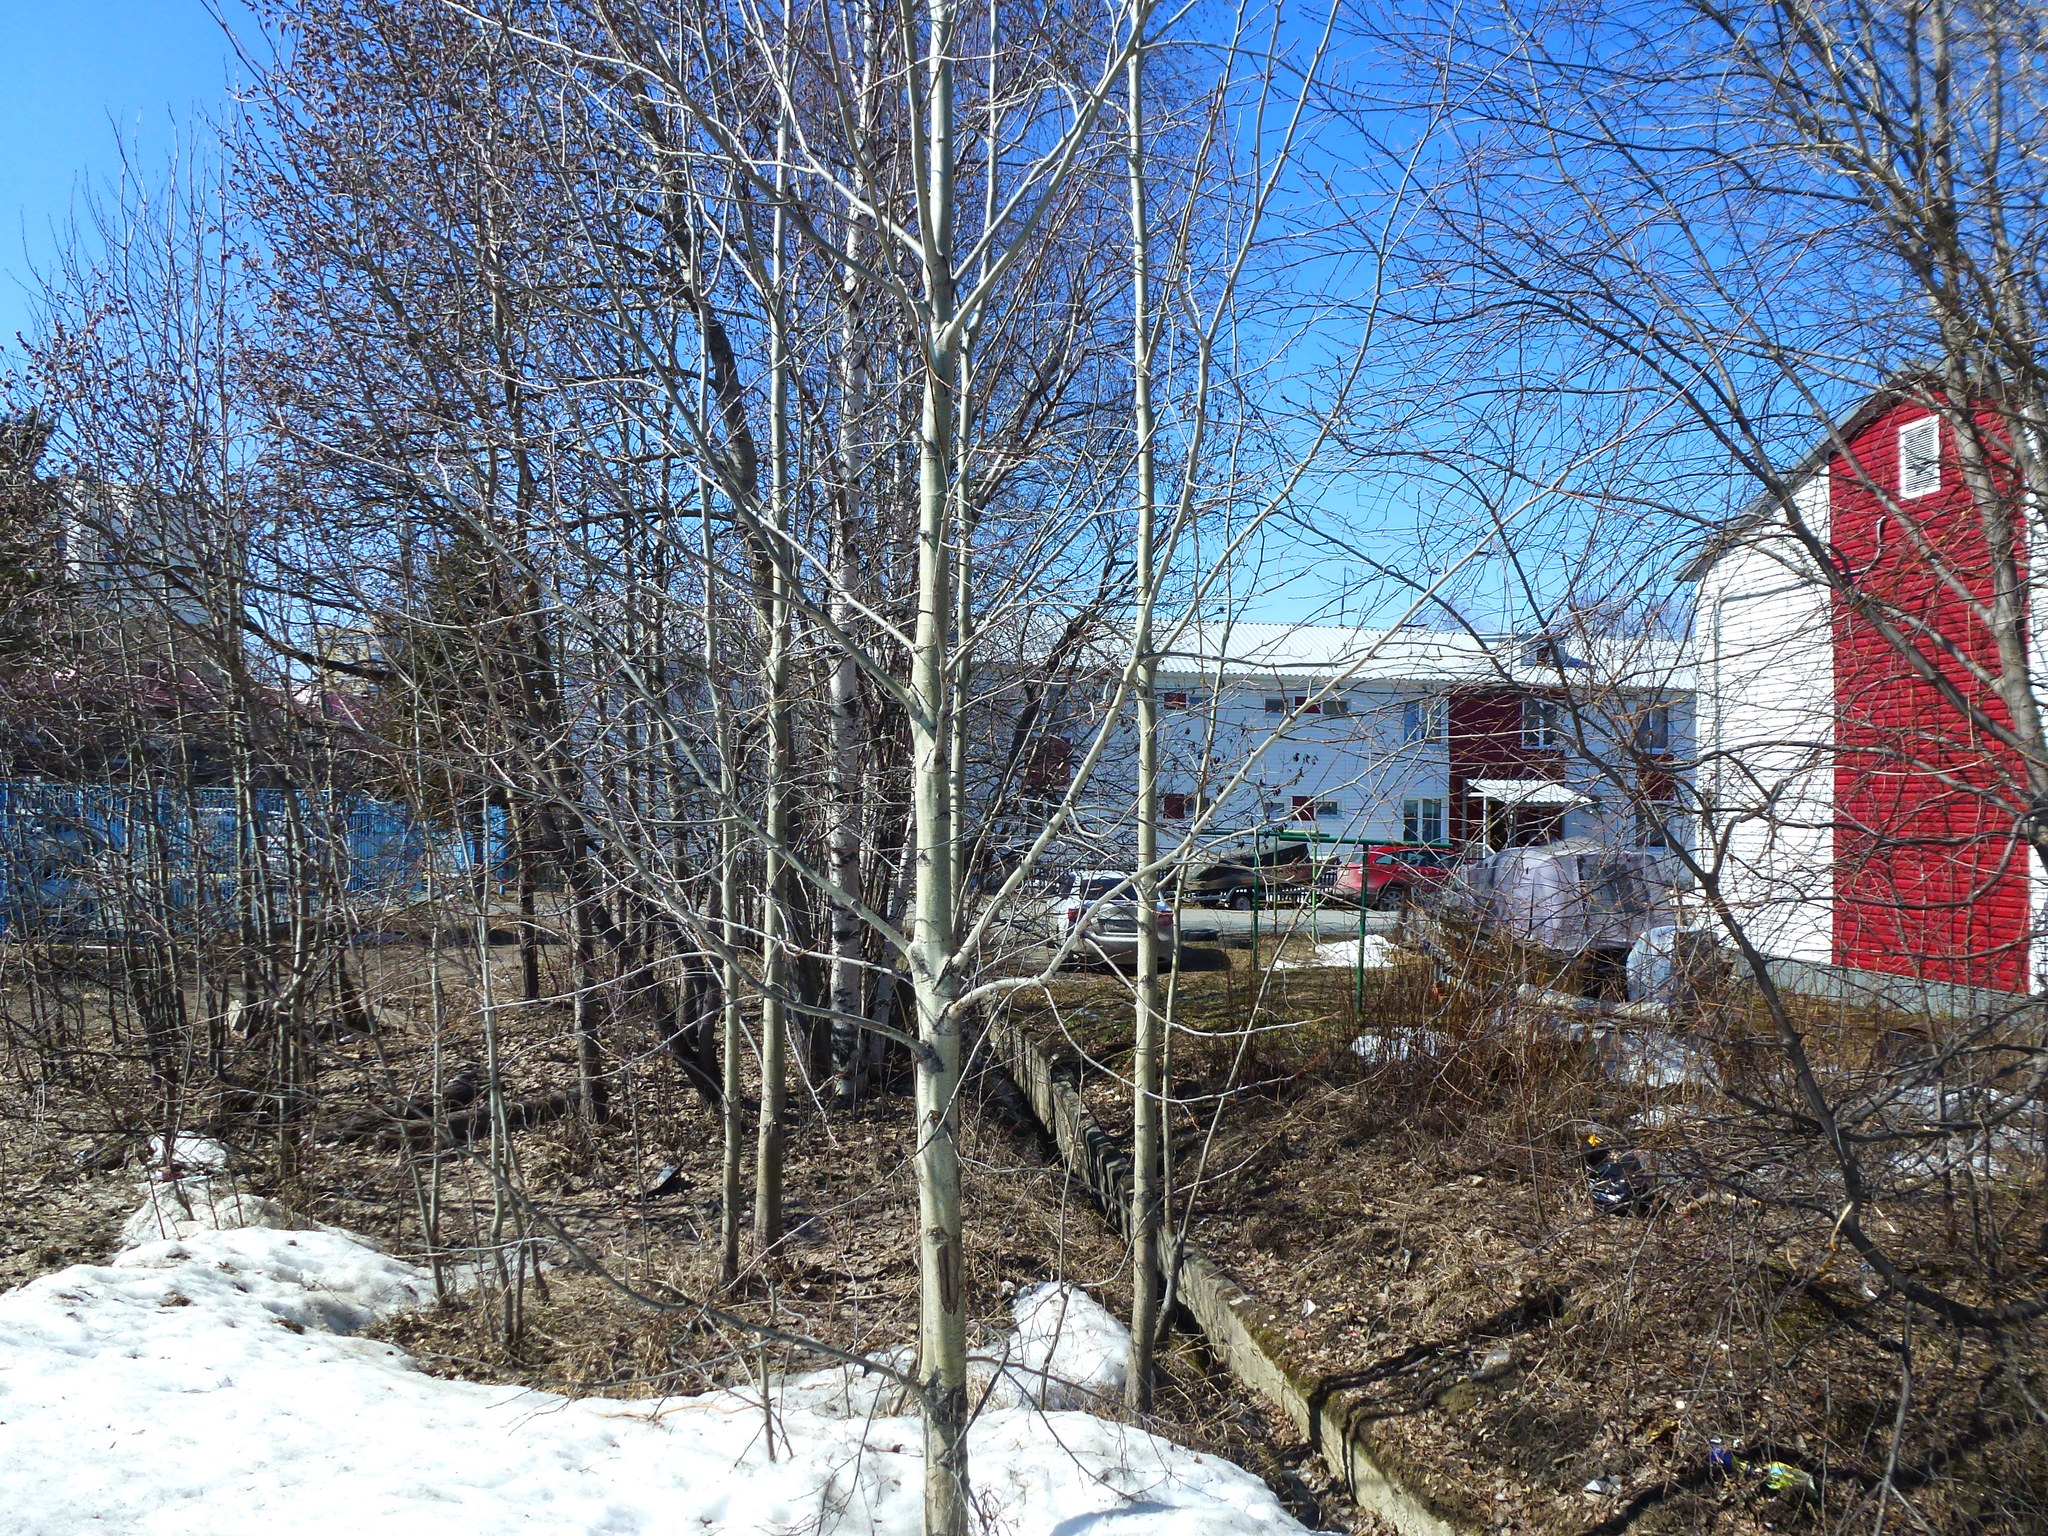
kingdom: Plantae
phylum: Tracheophyta
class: Magnoliopsida
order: Malpighiales
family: Salicaceae
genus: Populus
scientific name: Populus tremula
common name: European aspen
